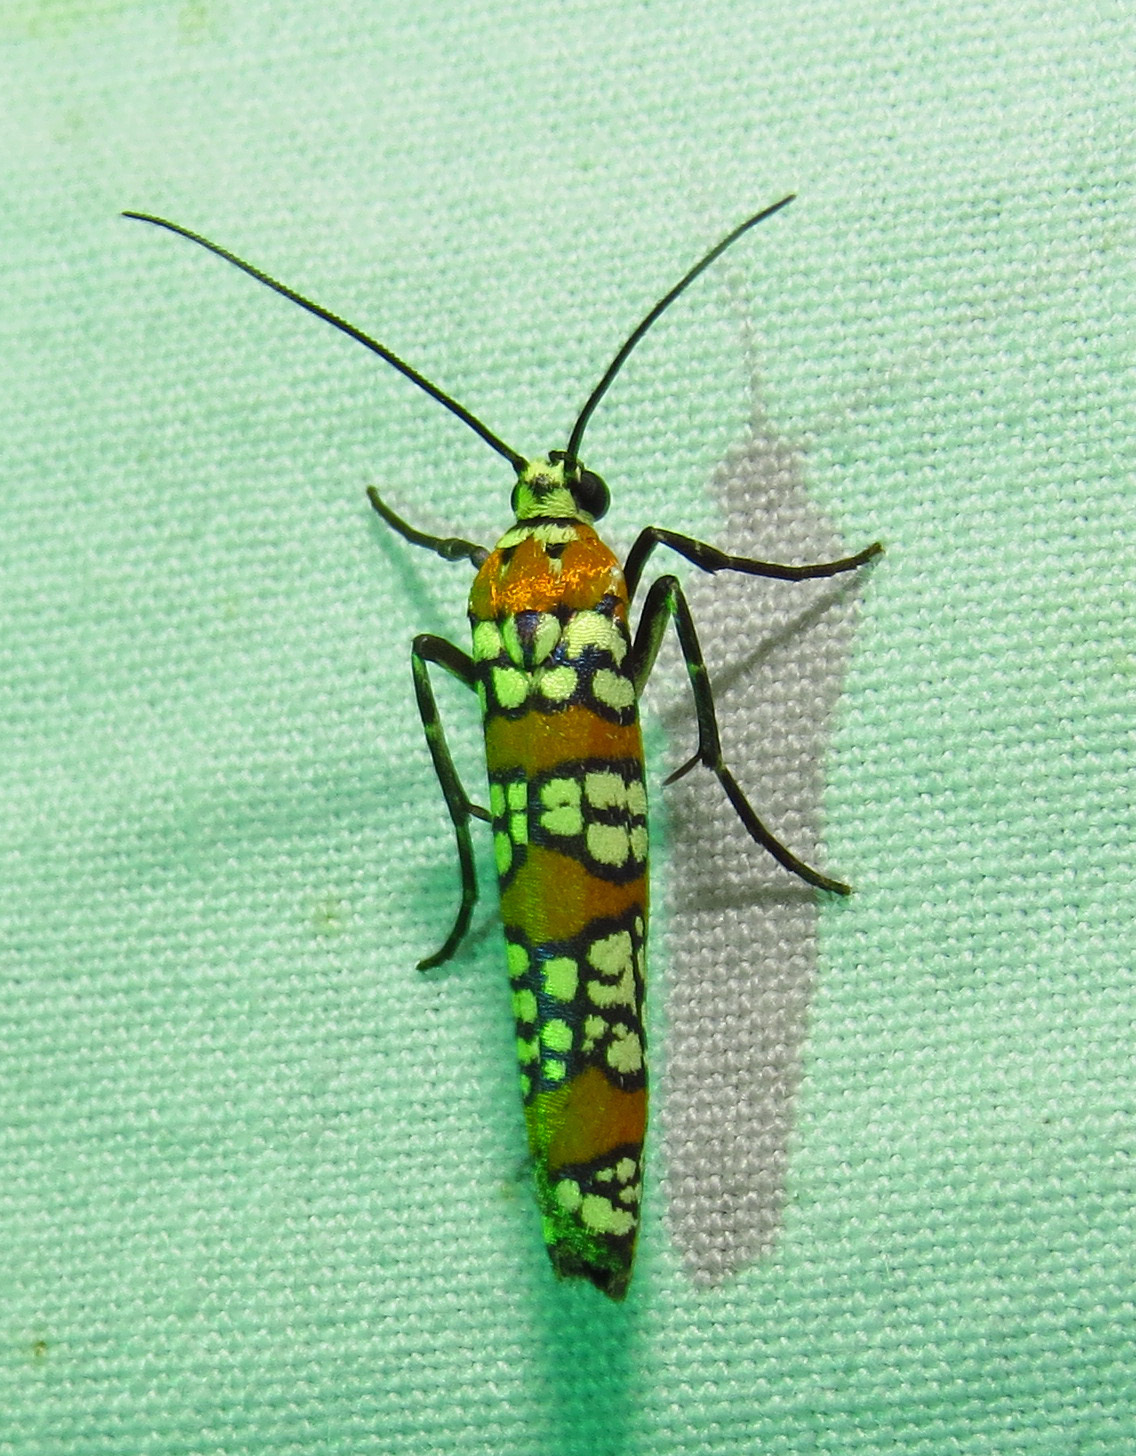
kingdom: Animalia
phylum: Arthropoda
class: Insecta
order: Lepidoptera
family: Attevidae
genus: Atteva
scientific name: Atteva punctella
